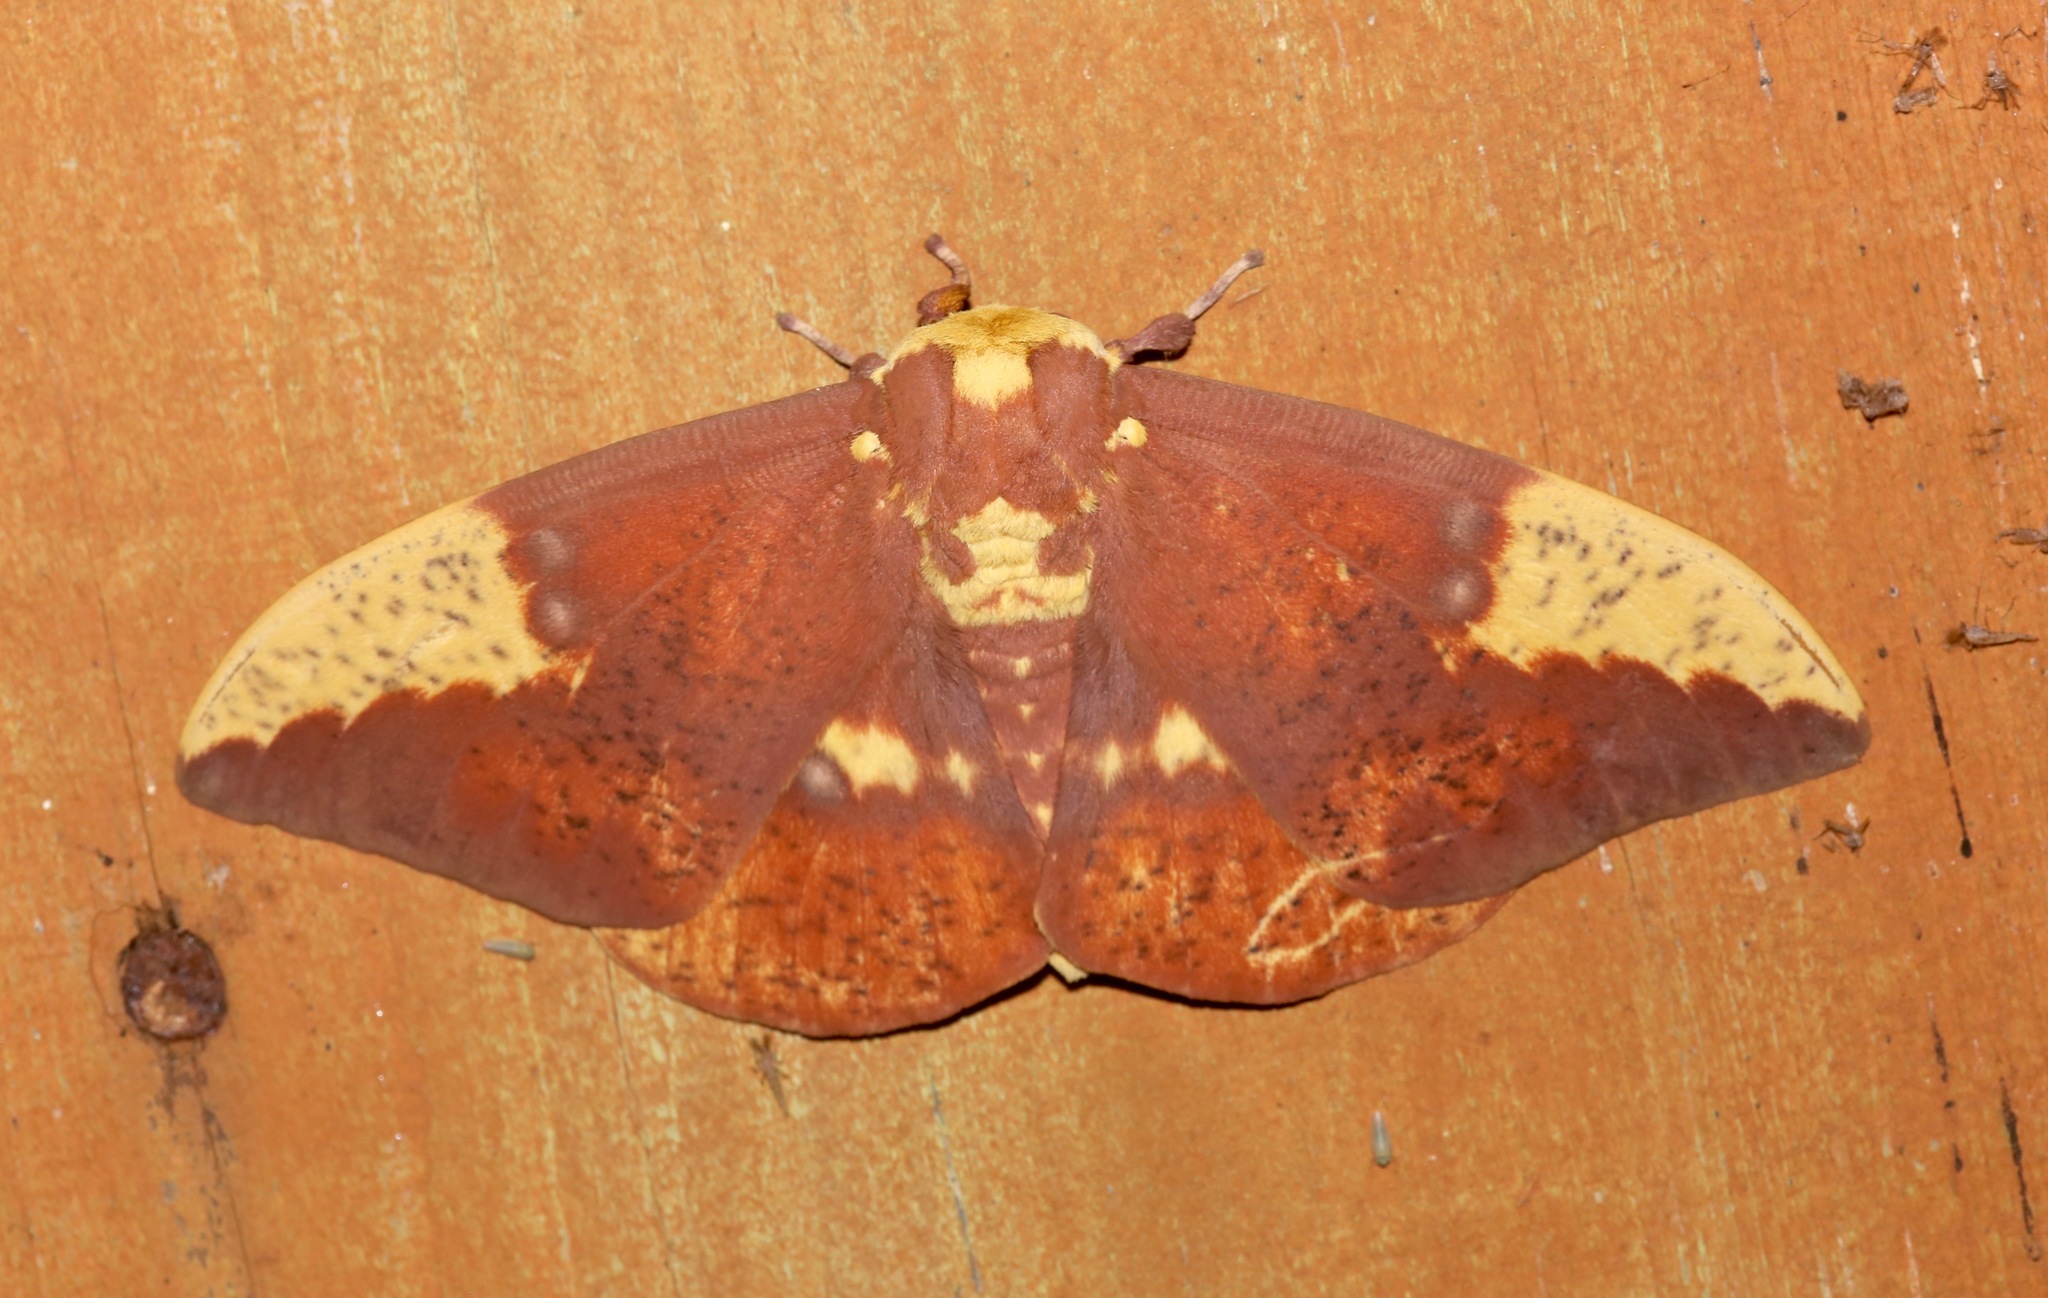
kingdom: Animalia
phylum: Arthropoda
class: Insecta
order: Lepidoptera
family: Saturniidae
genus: Eacles
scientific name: Eacles imperialis
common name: Imperial moth
